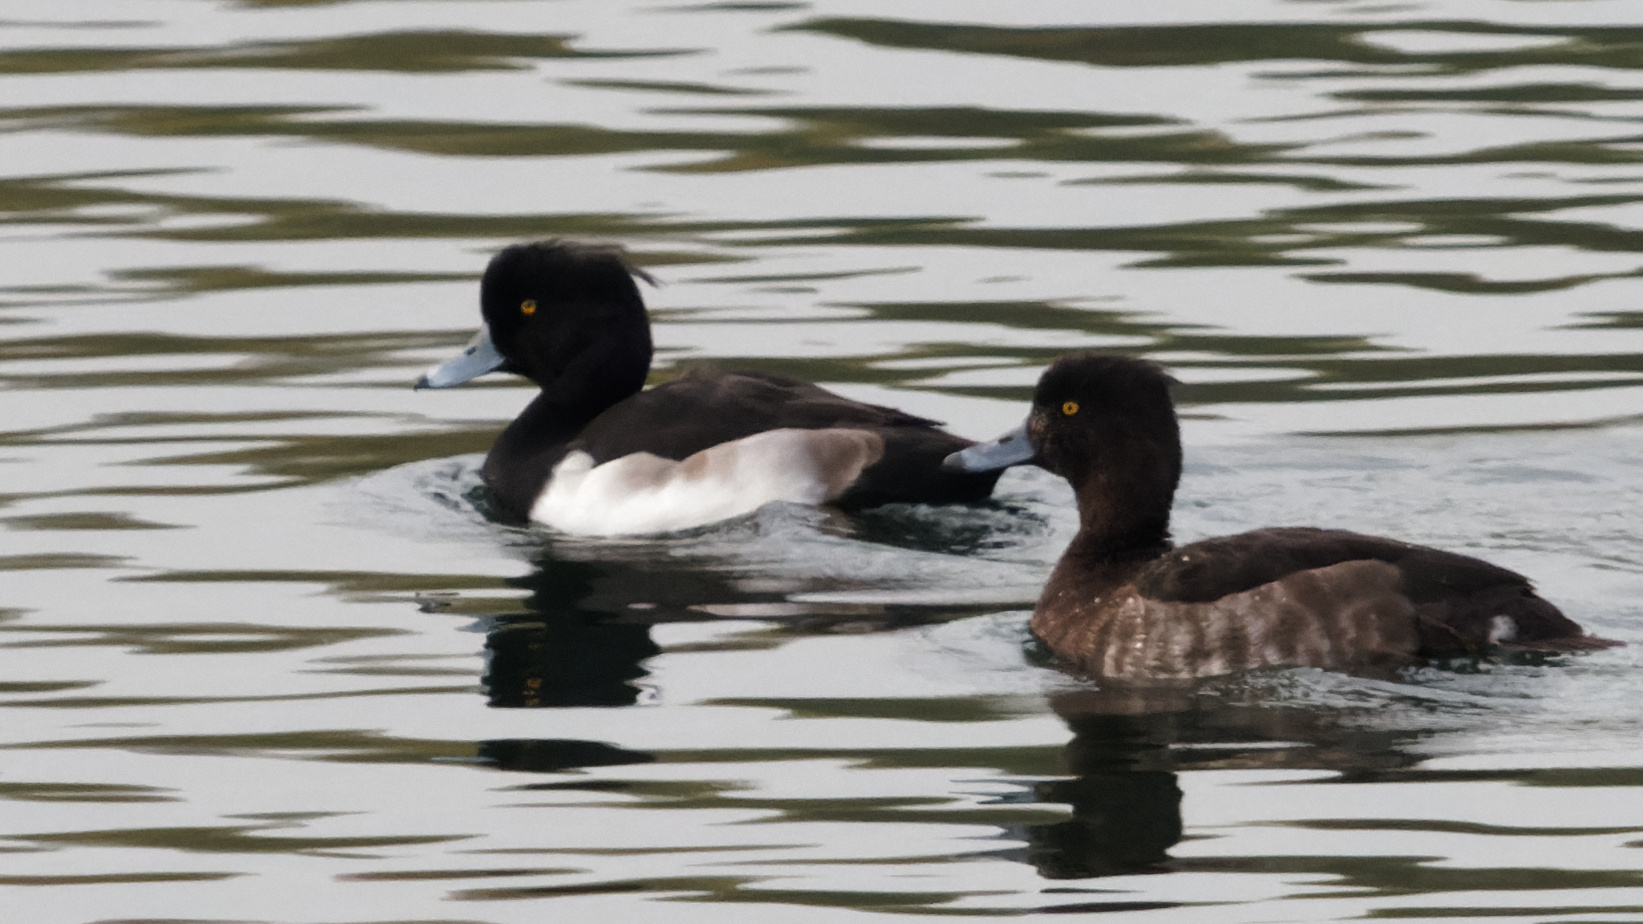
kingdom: Animalia
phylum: Chordata
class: Aves
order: Anseriformes
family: Anatidae
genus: Aythya
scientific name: Aythya fuligula
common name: Tufted duck
